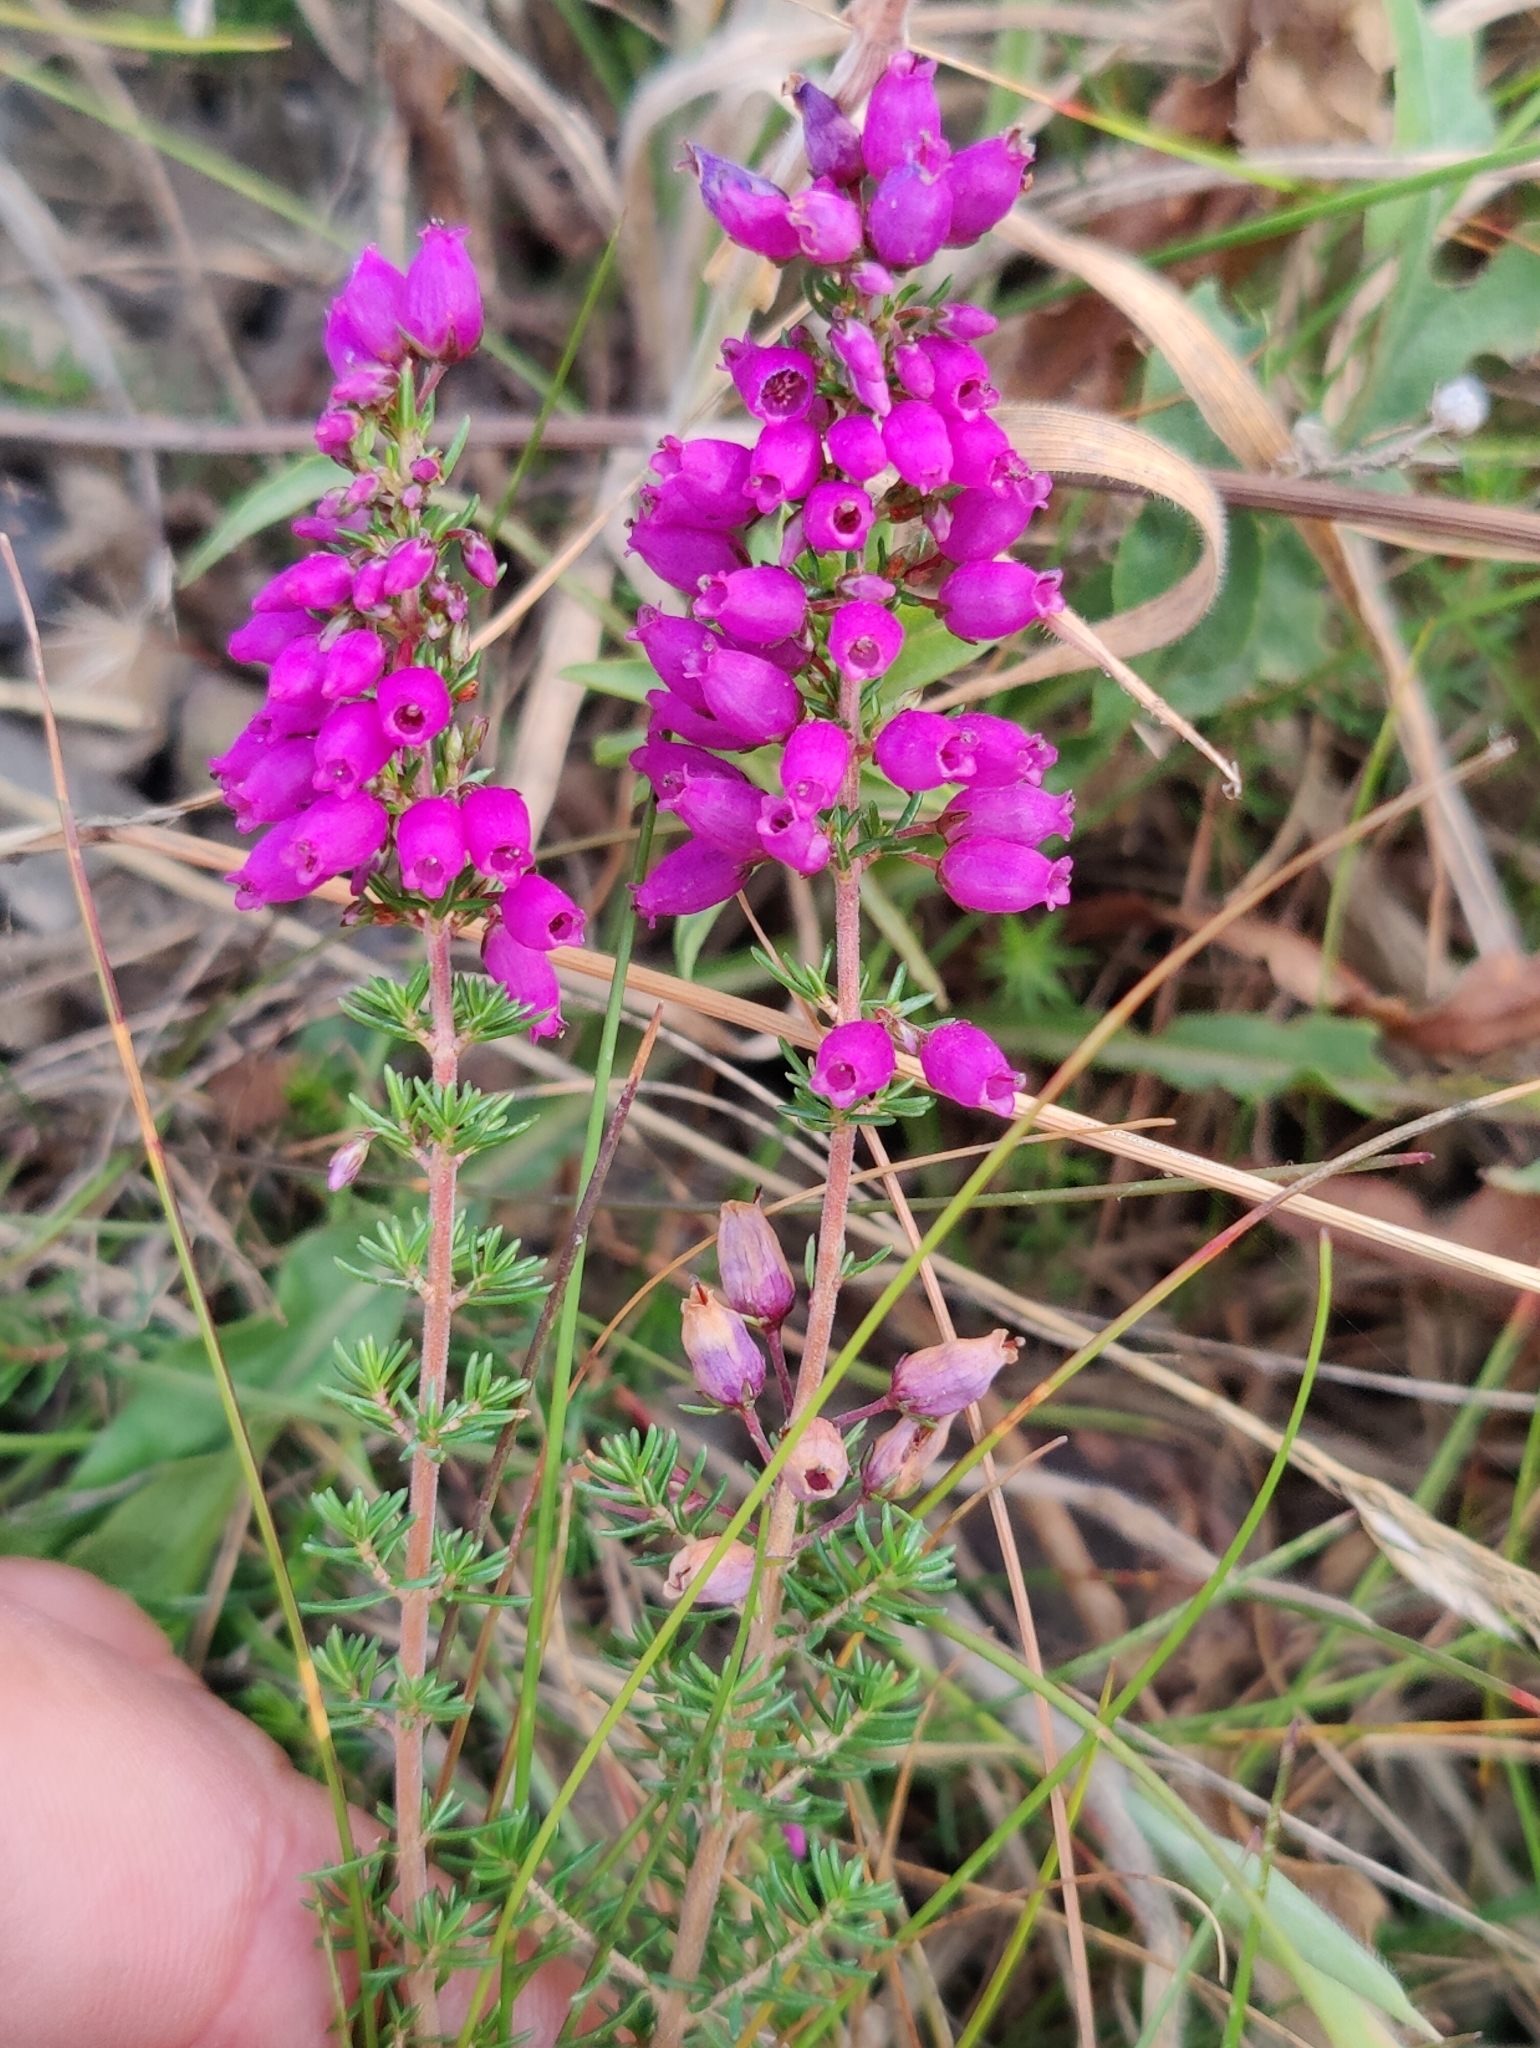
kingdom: Plantae
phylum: Tracheophyta
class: Magnoliopsida
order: Ericales
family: Ericaceae
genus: Erica
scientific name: Erica cinerea
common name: Bell heather
